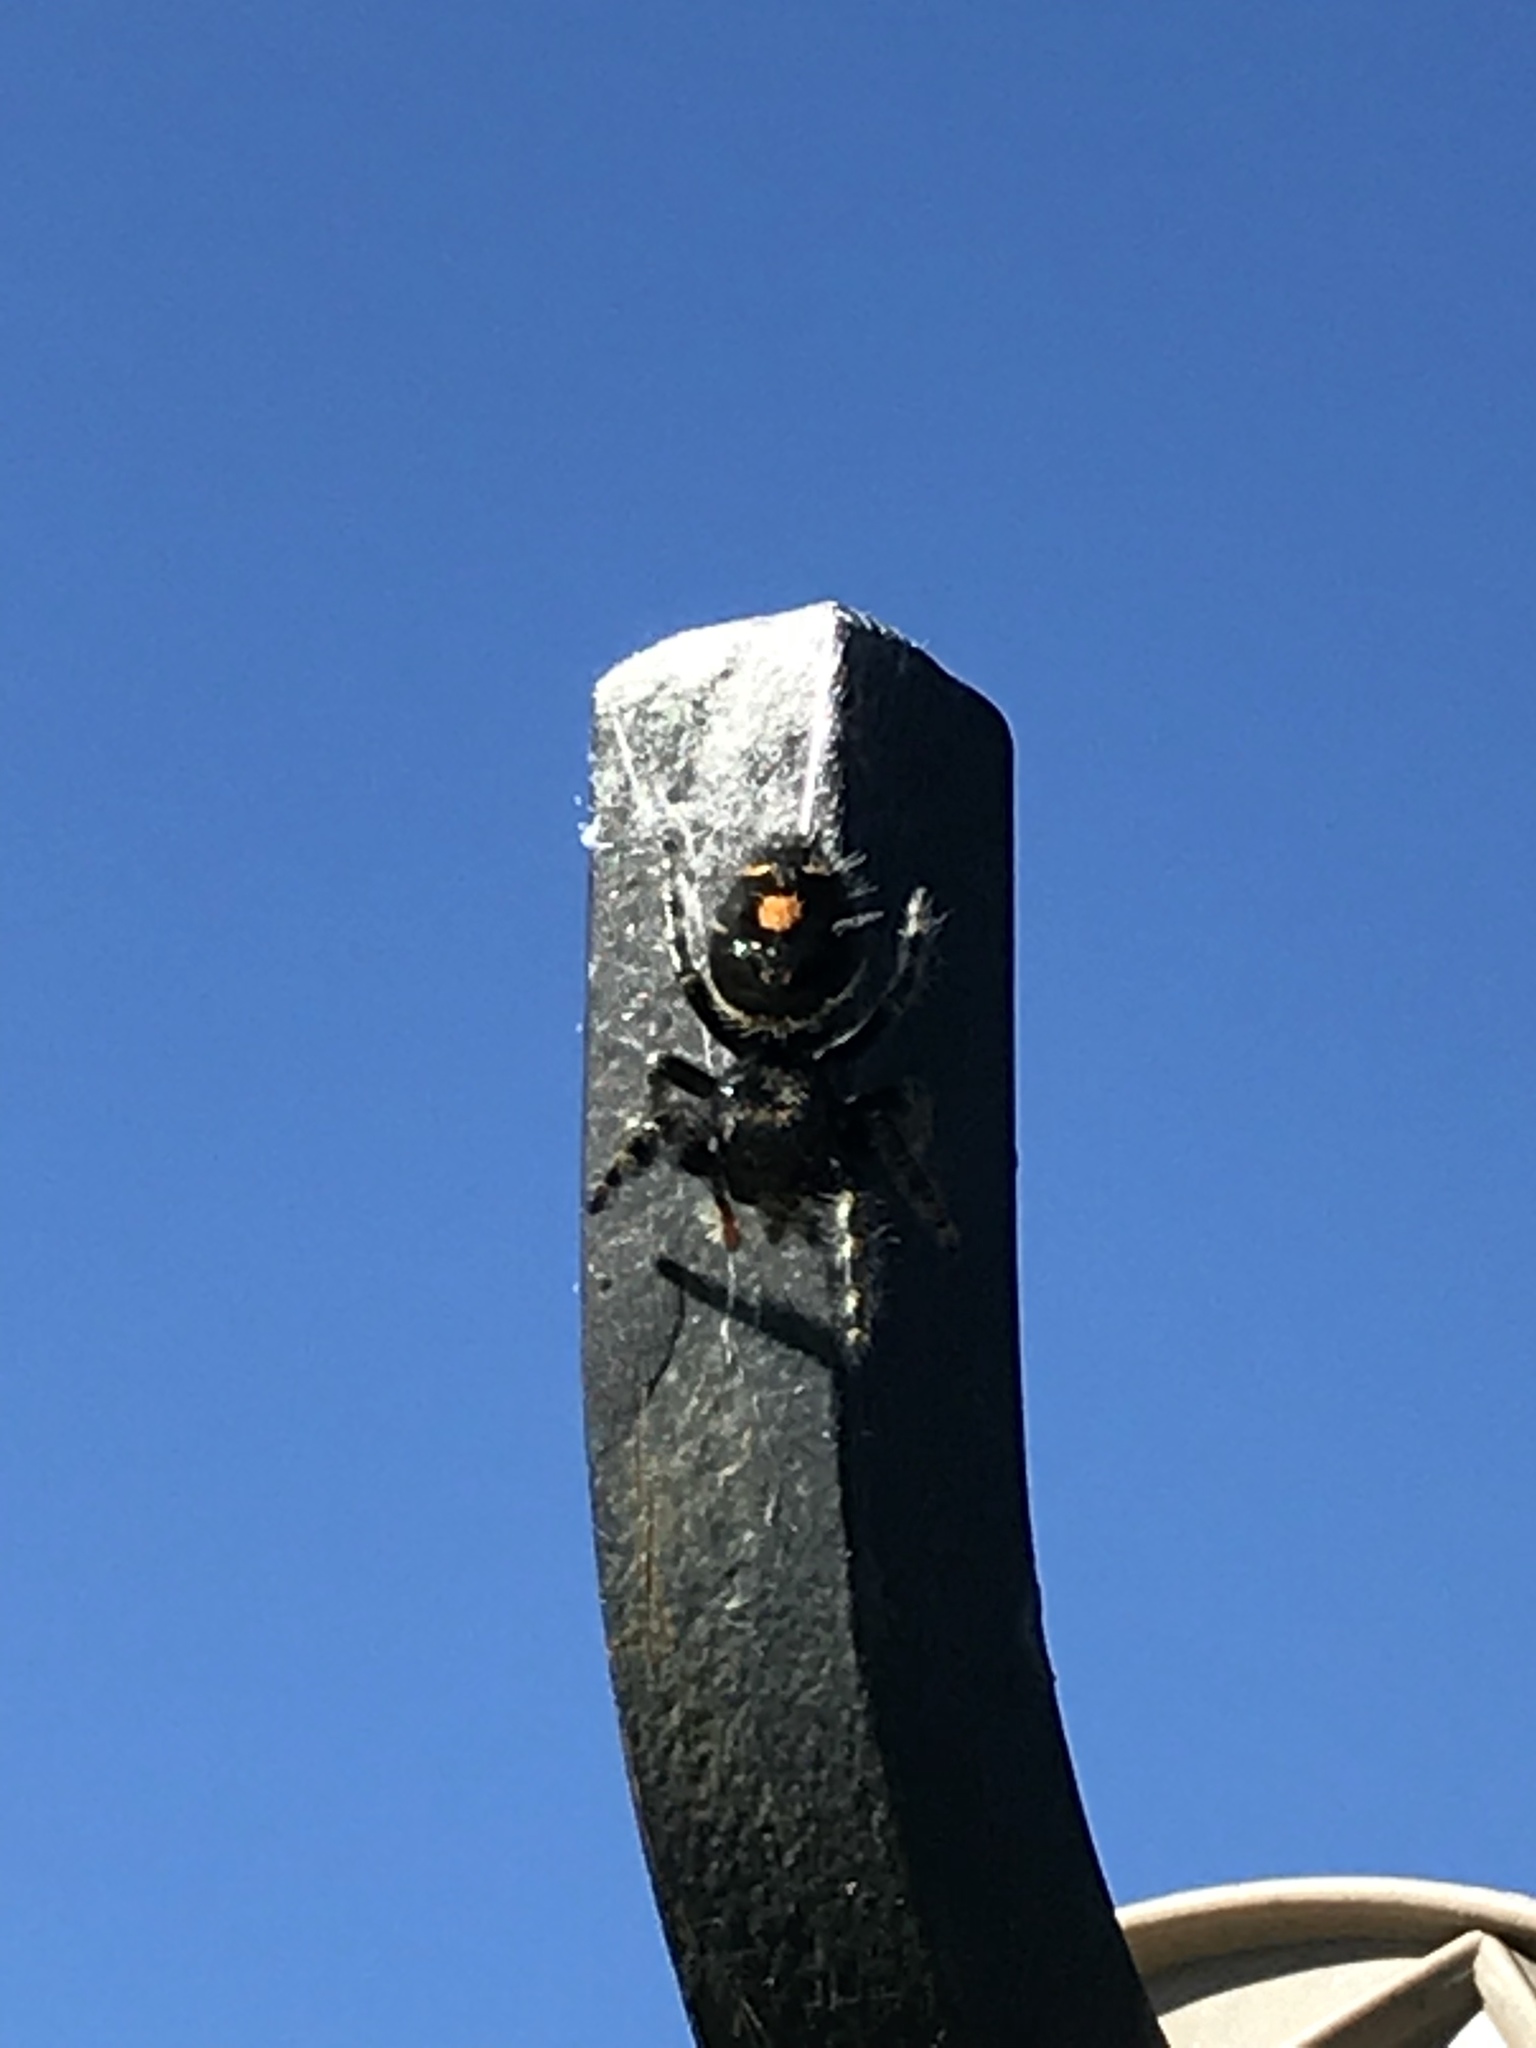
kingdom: Animalia
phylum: Arthropoda
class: Arachnida
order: Araneae
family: Salticidae
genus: Phidippus
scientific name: Phidippus audax
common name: Bold jumper
